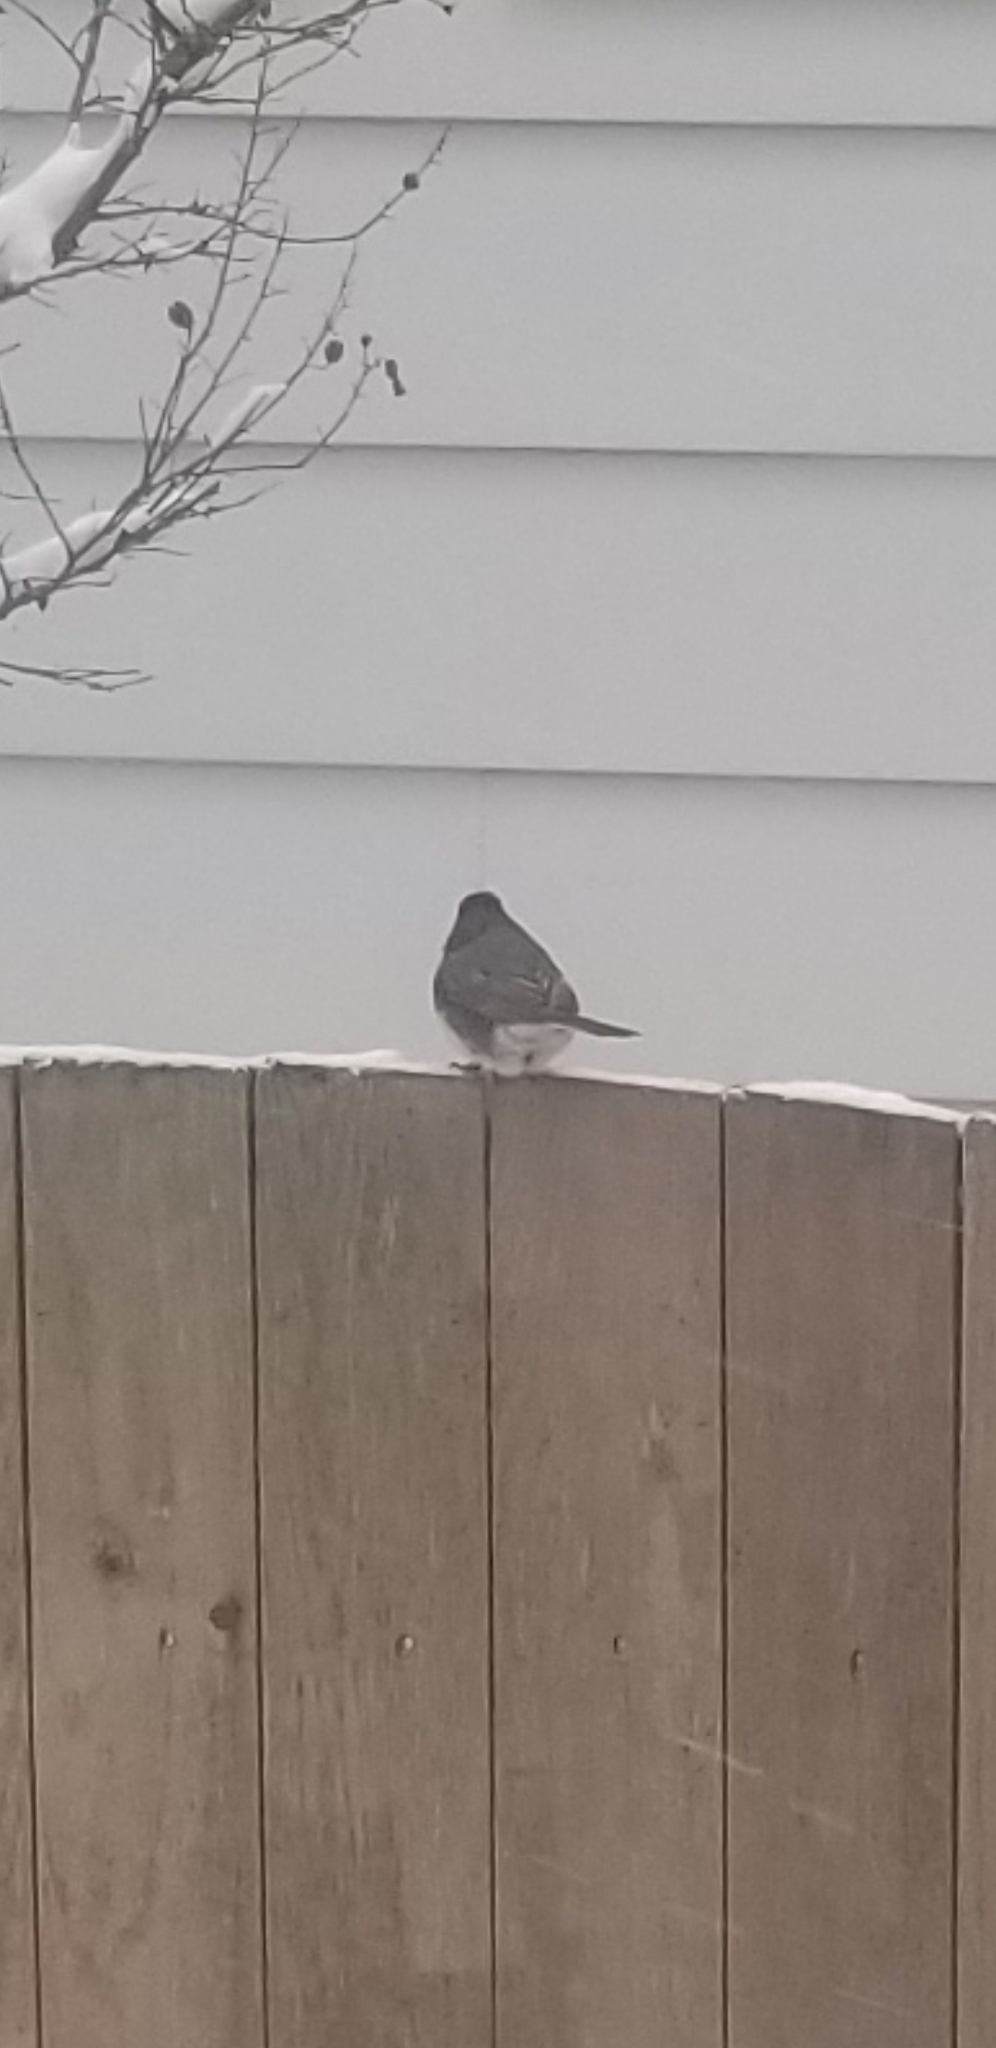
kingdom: Animalia
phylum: Chordata
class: Aves
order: Passeriformes
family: Passerellidae
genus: Junco
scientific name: Junco hyemalis
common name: Dark-eyed junco
